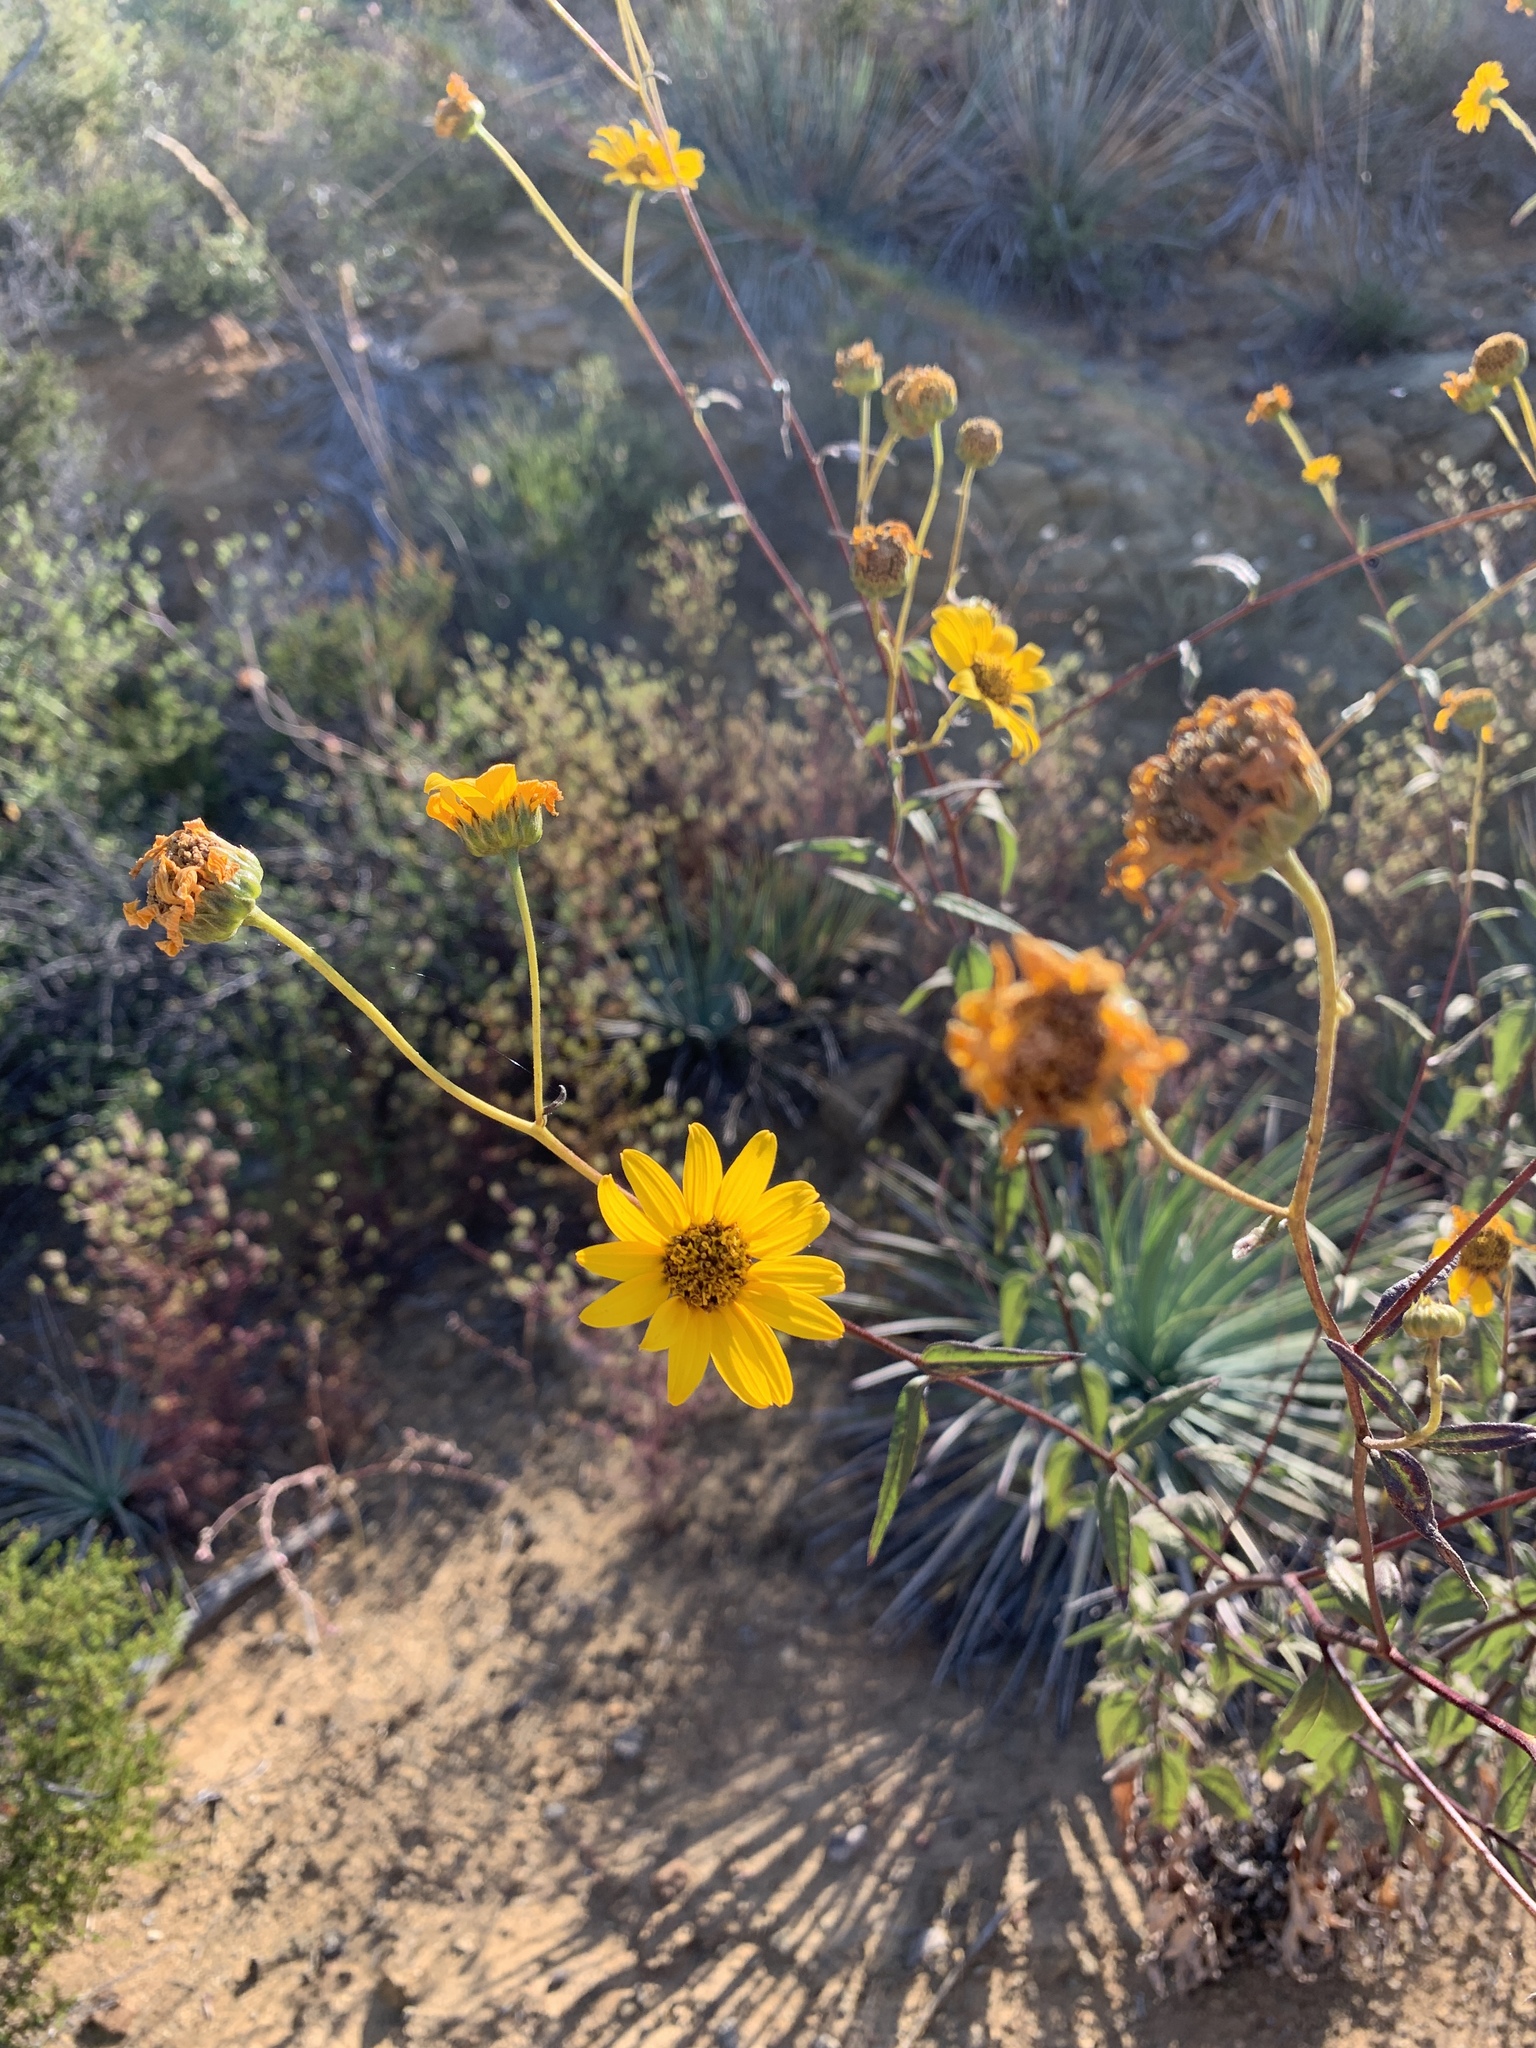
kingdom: Plantae
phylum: Tracheophyta
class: Magnoliopsida
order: Asterales
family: Asteraceae
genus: Encelia
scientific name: Encelia californica
